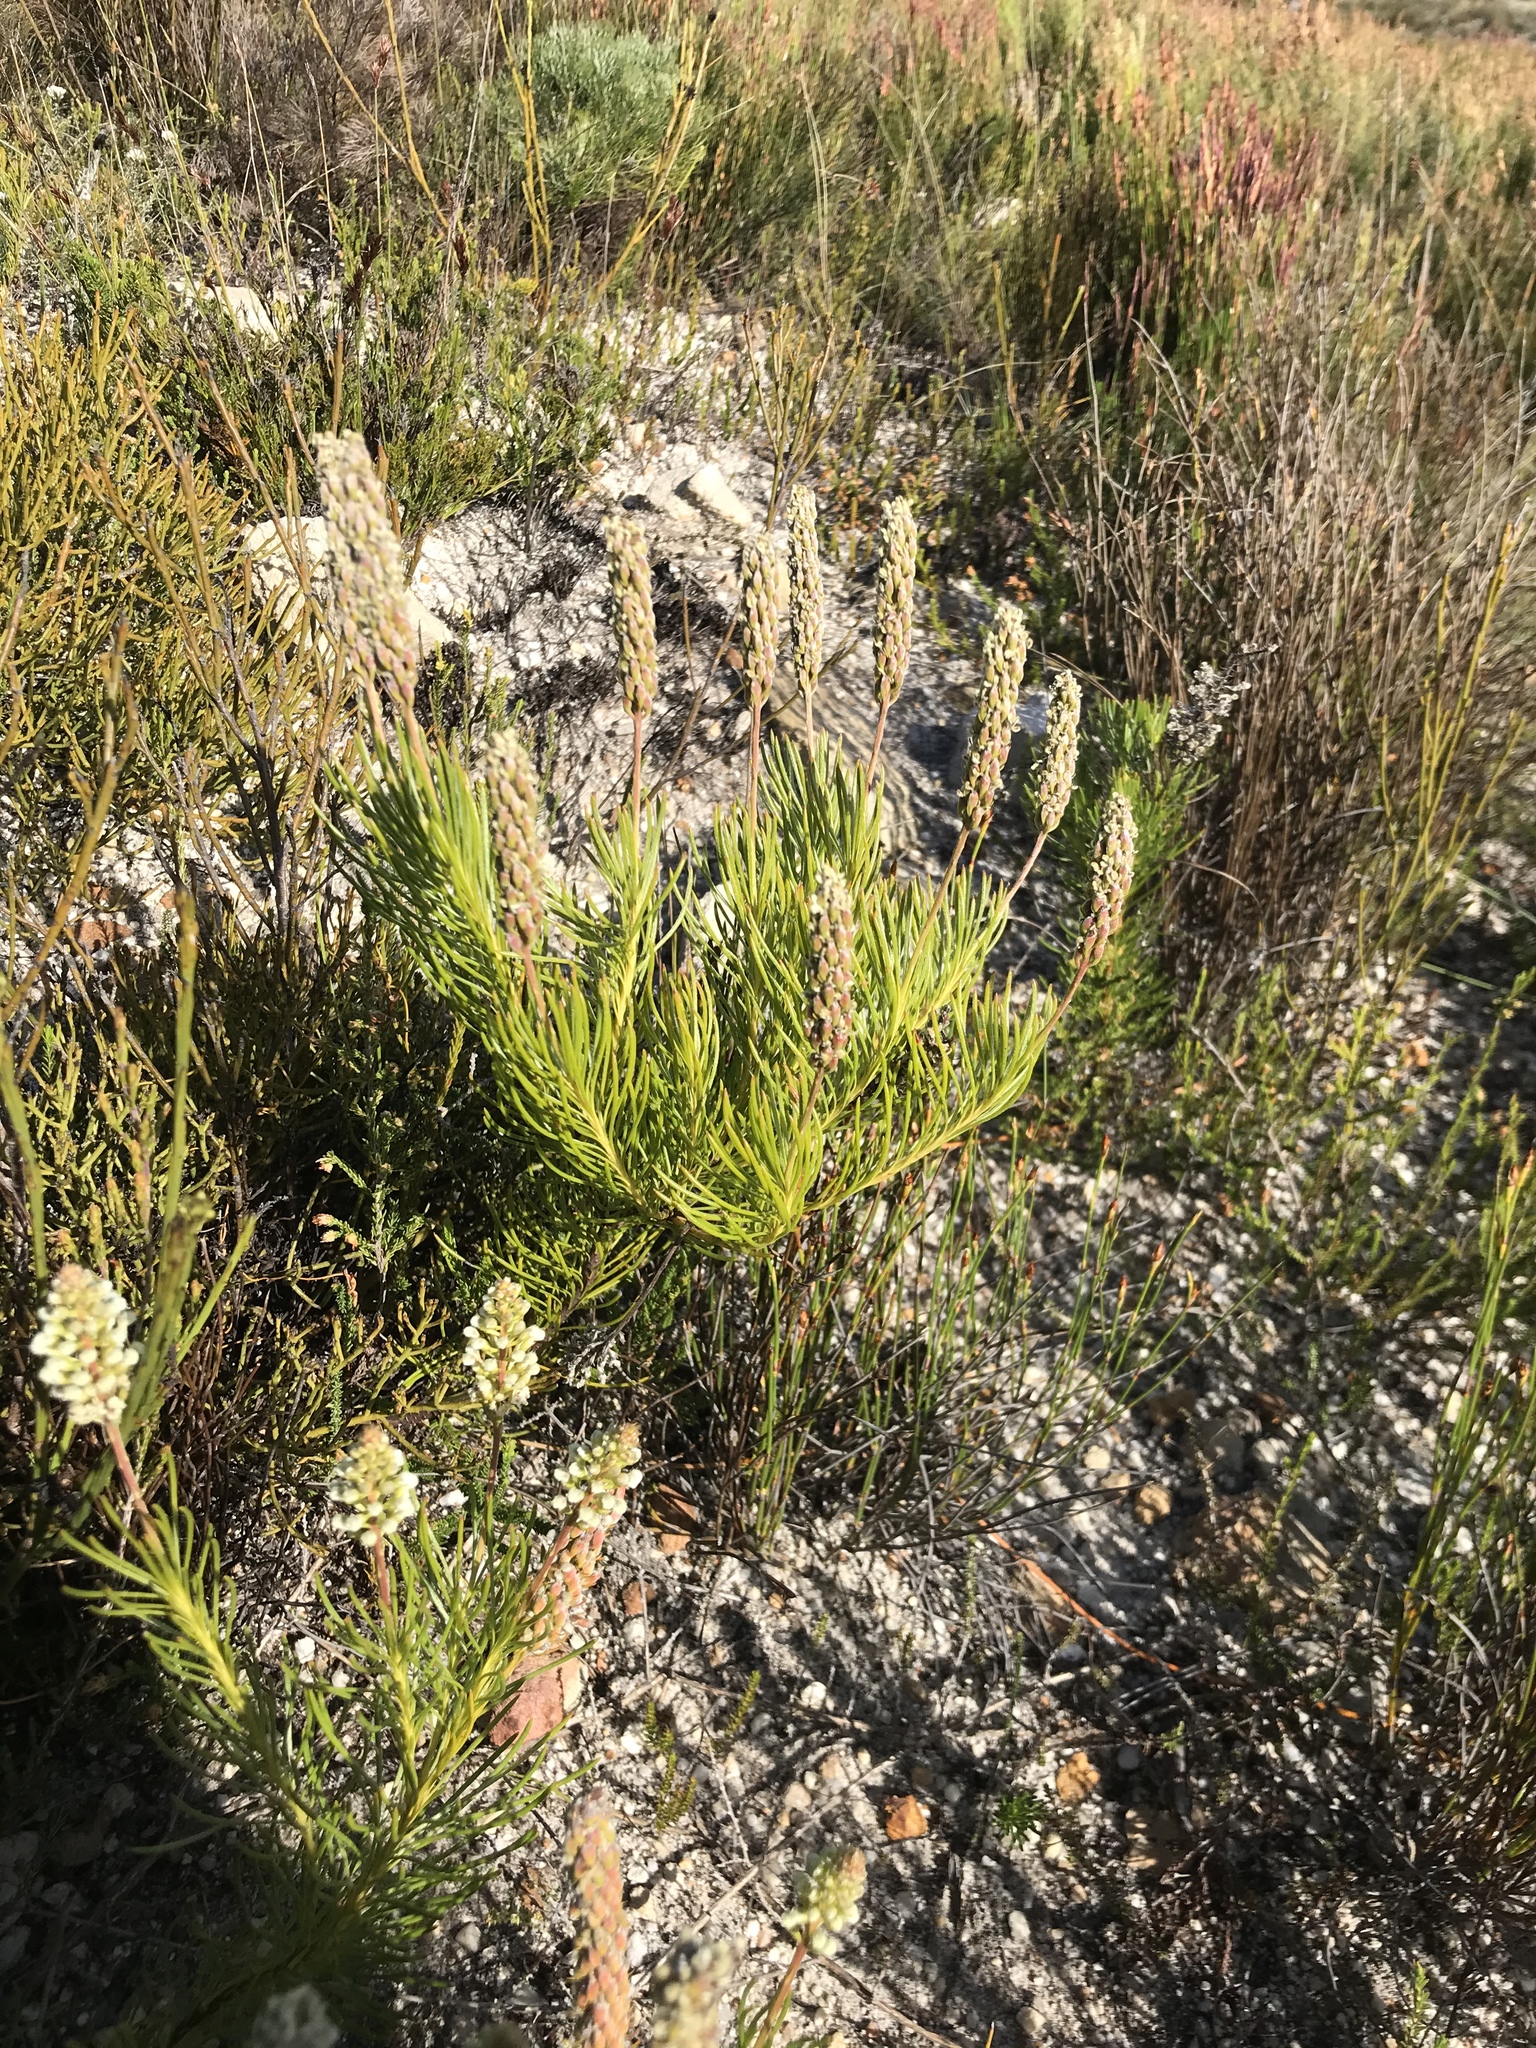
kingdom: Plantae
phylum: Tracheophyta
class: Magnoliopsida
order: Proteales
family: Proteaceae
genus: Spatalla
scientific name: Spatalla curvifolia
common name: White-stalked spoon
